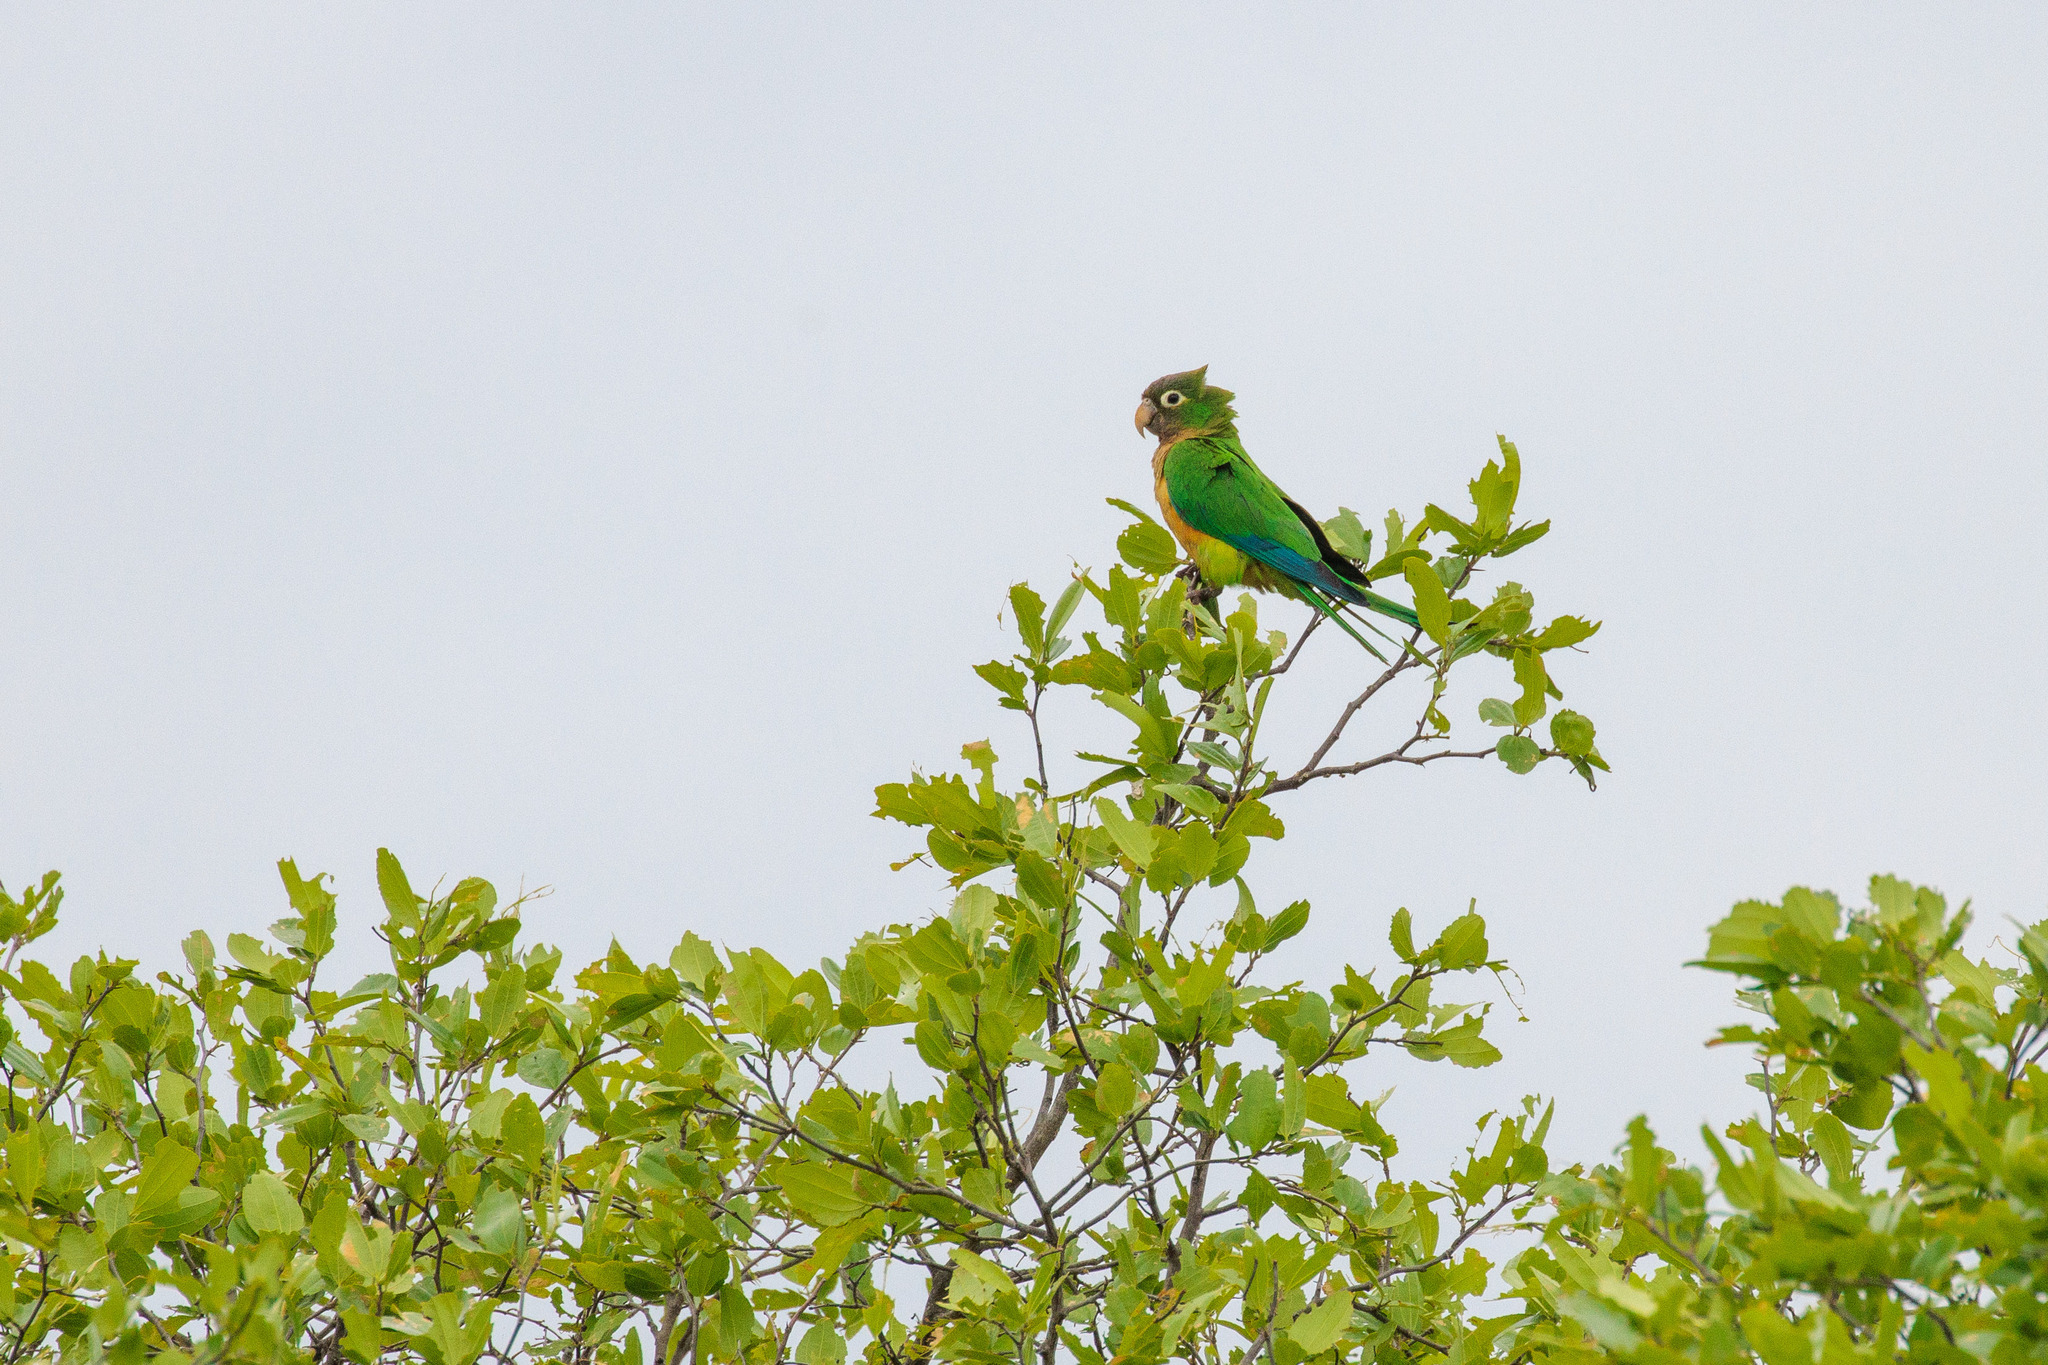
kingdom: Animalia
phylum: Chordata
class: Aves
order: Psittaciformes
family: Psittacidae
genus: Aratinga
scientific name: Aratinga cactorum
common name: Caatinga parakeet
